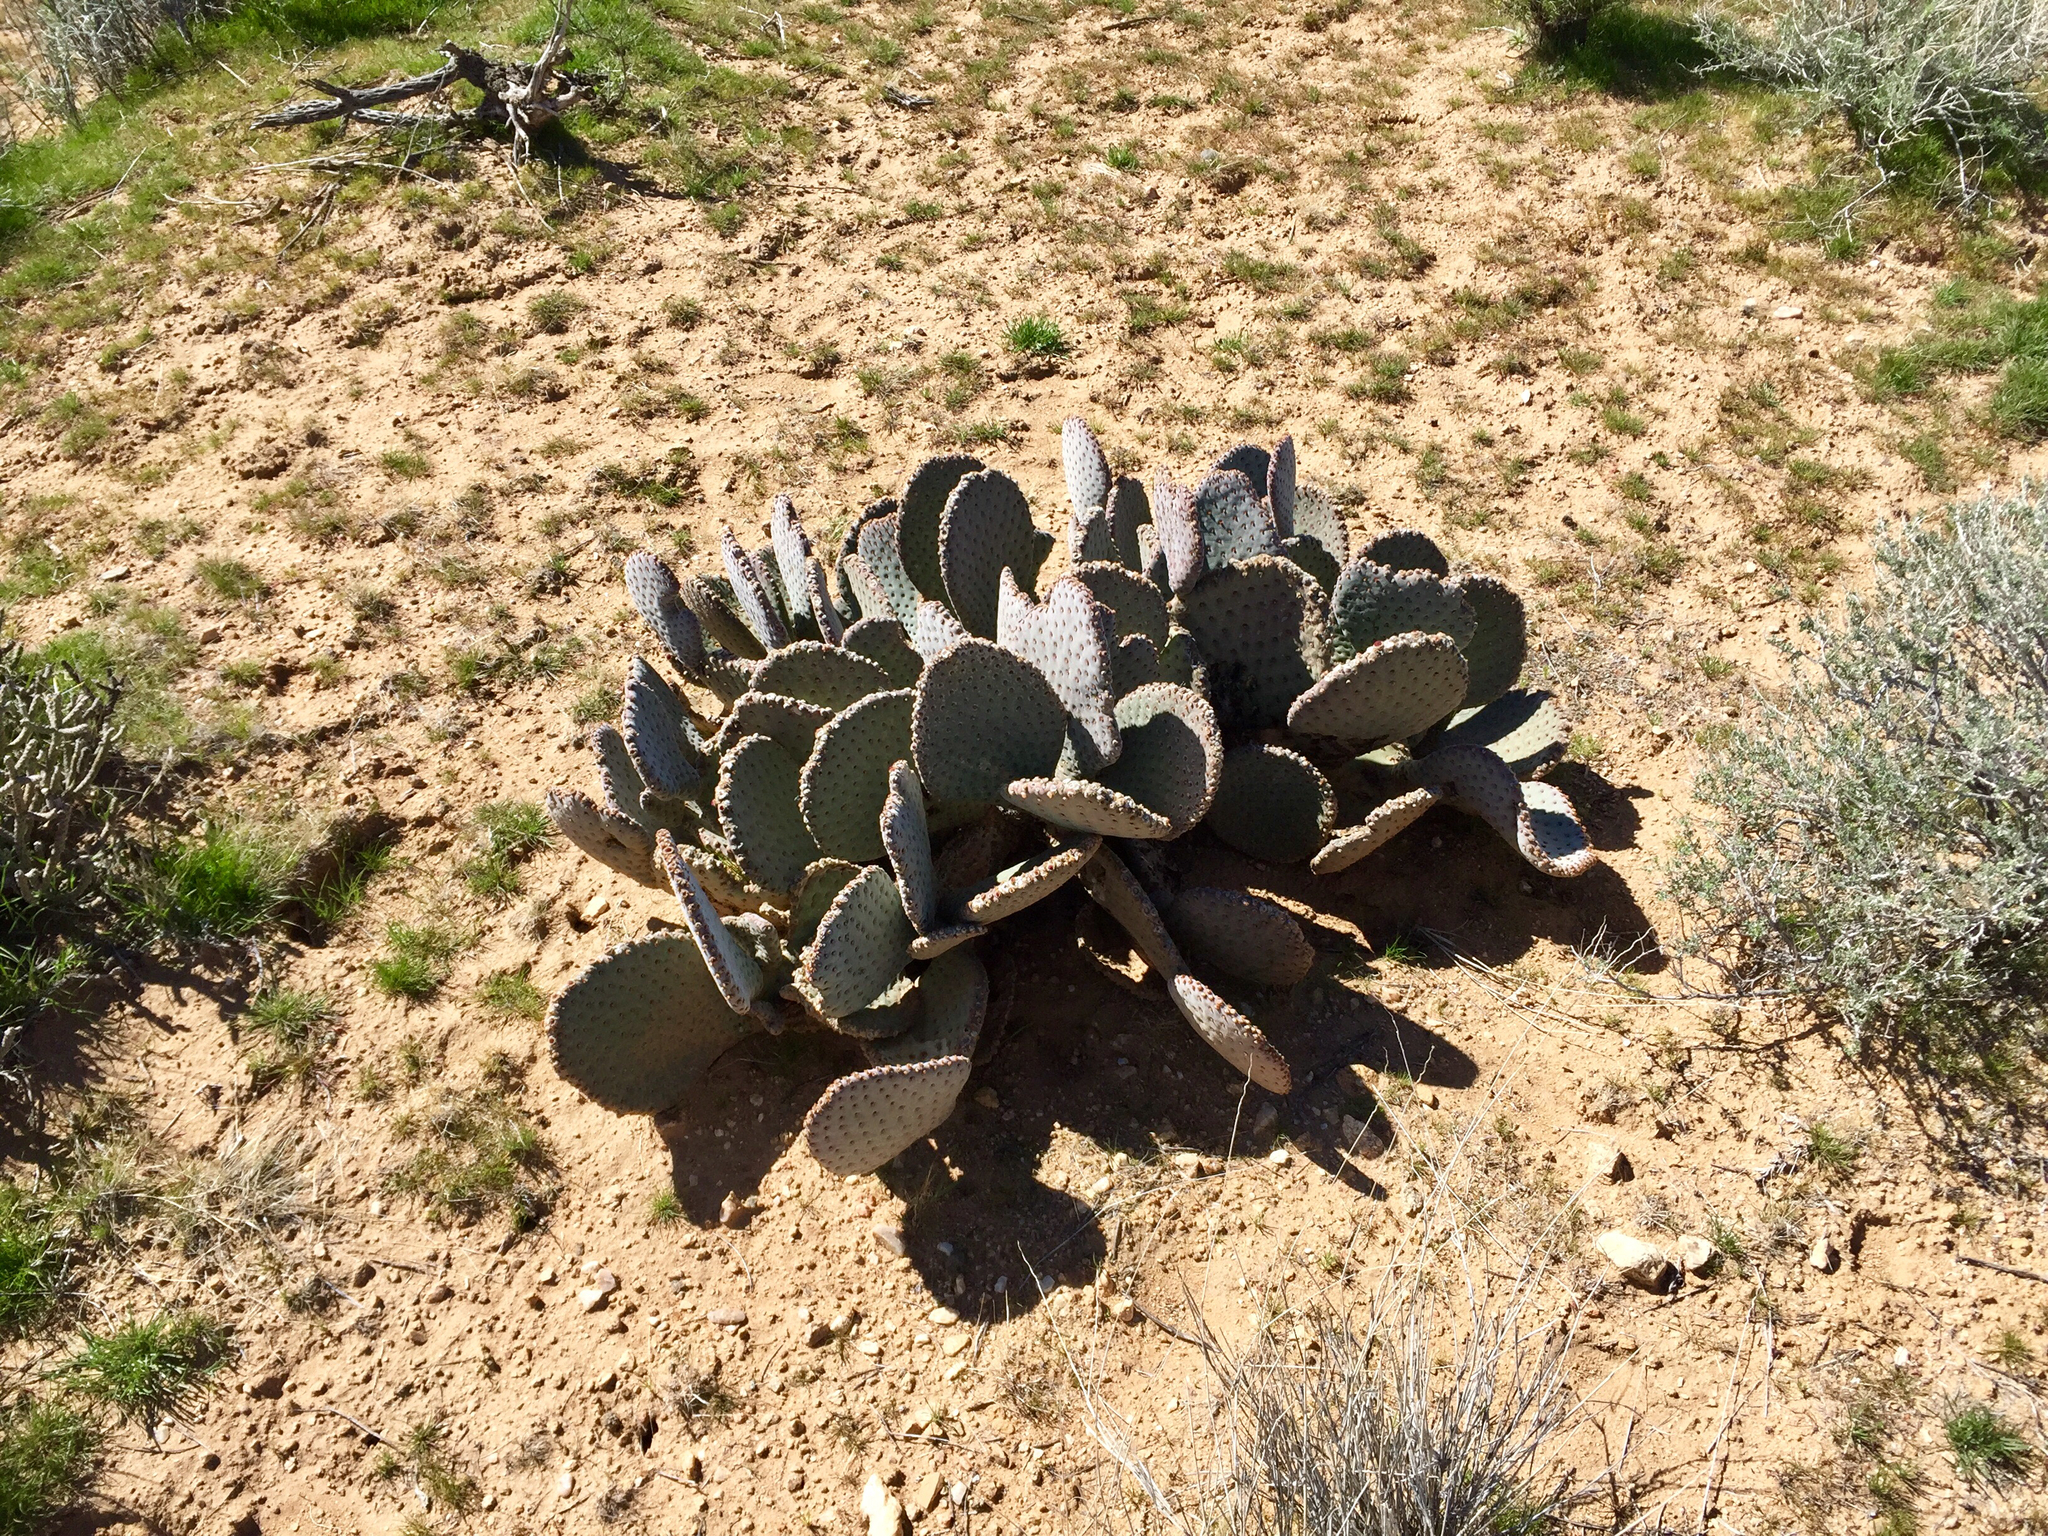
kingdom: Plantae
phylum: Tracheophyta
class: Magnoliopsida
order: Caryophyllales
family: Cactaceae
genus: Opuntia
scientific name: Opuntia basilaris
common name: Beavertail prickly-pear
